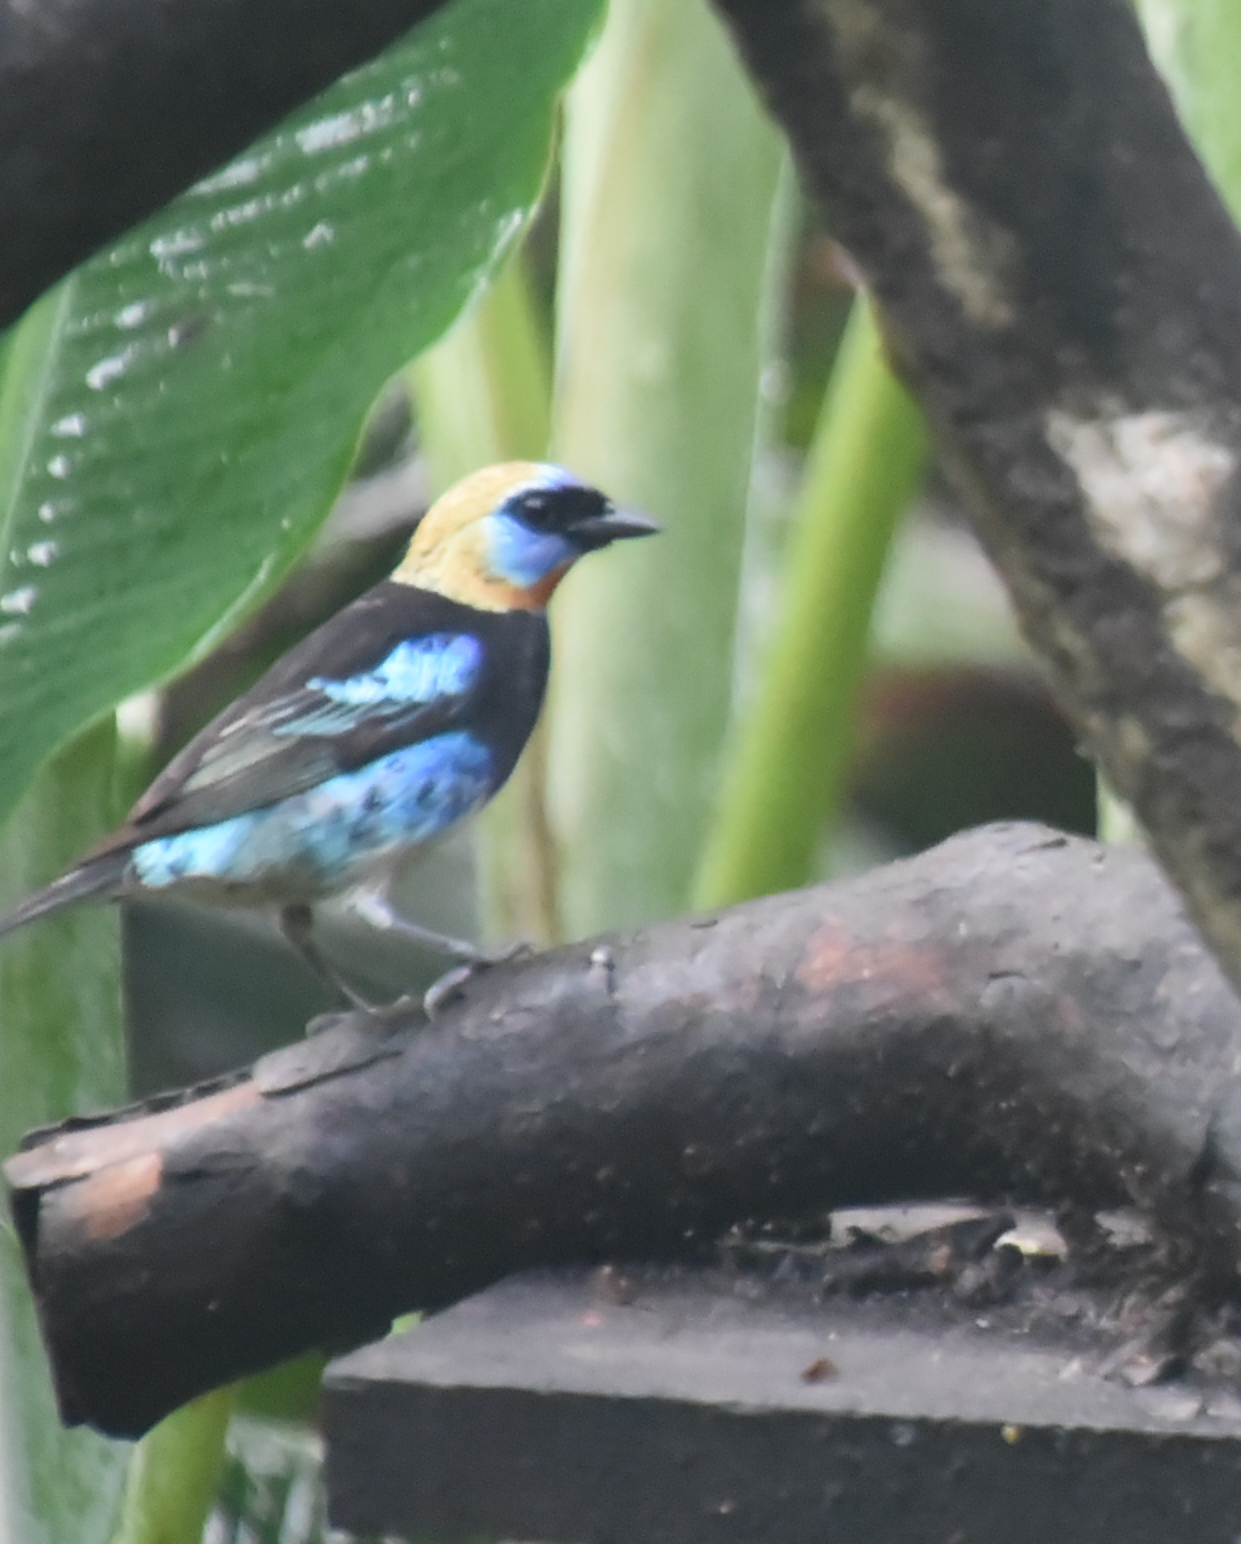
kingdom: Animalia
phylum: Chordata
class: Aves
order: Passeriformes
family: Thraupidae
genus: Stilpnia
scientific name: Stilpnia larvata
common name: Golden-hooded tanager
